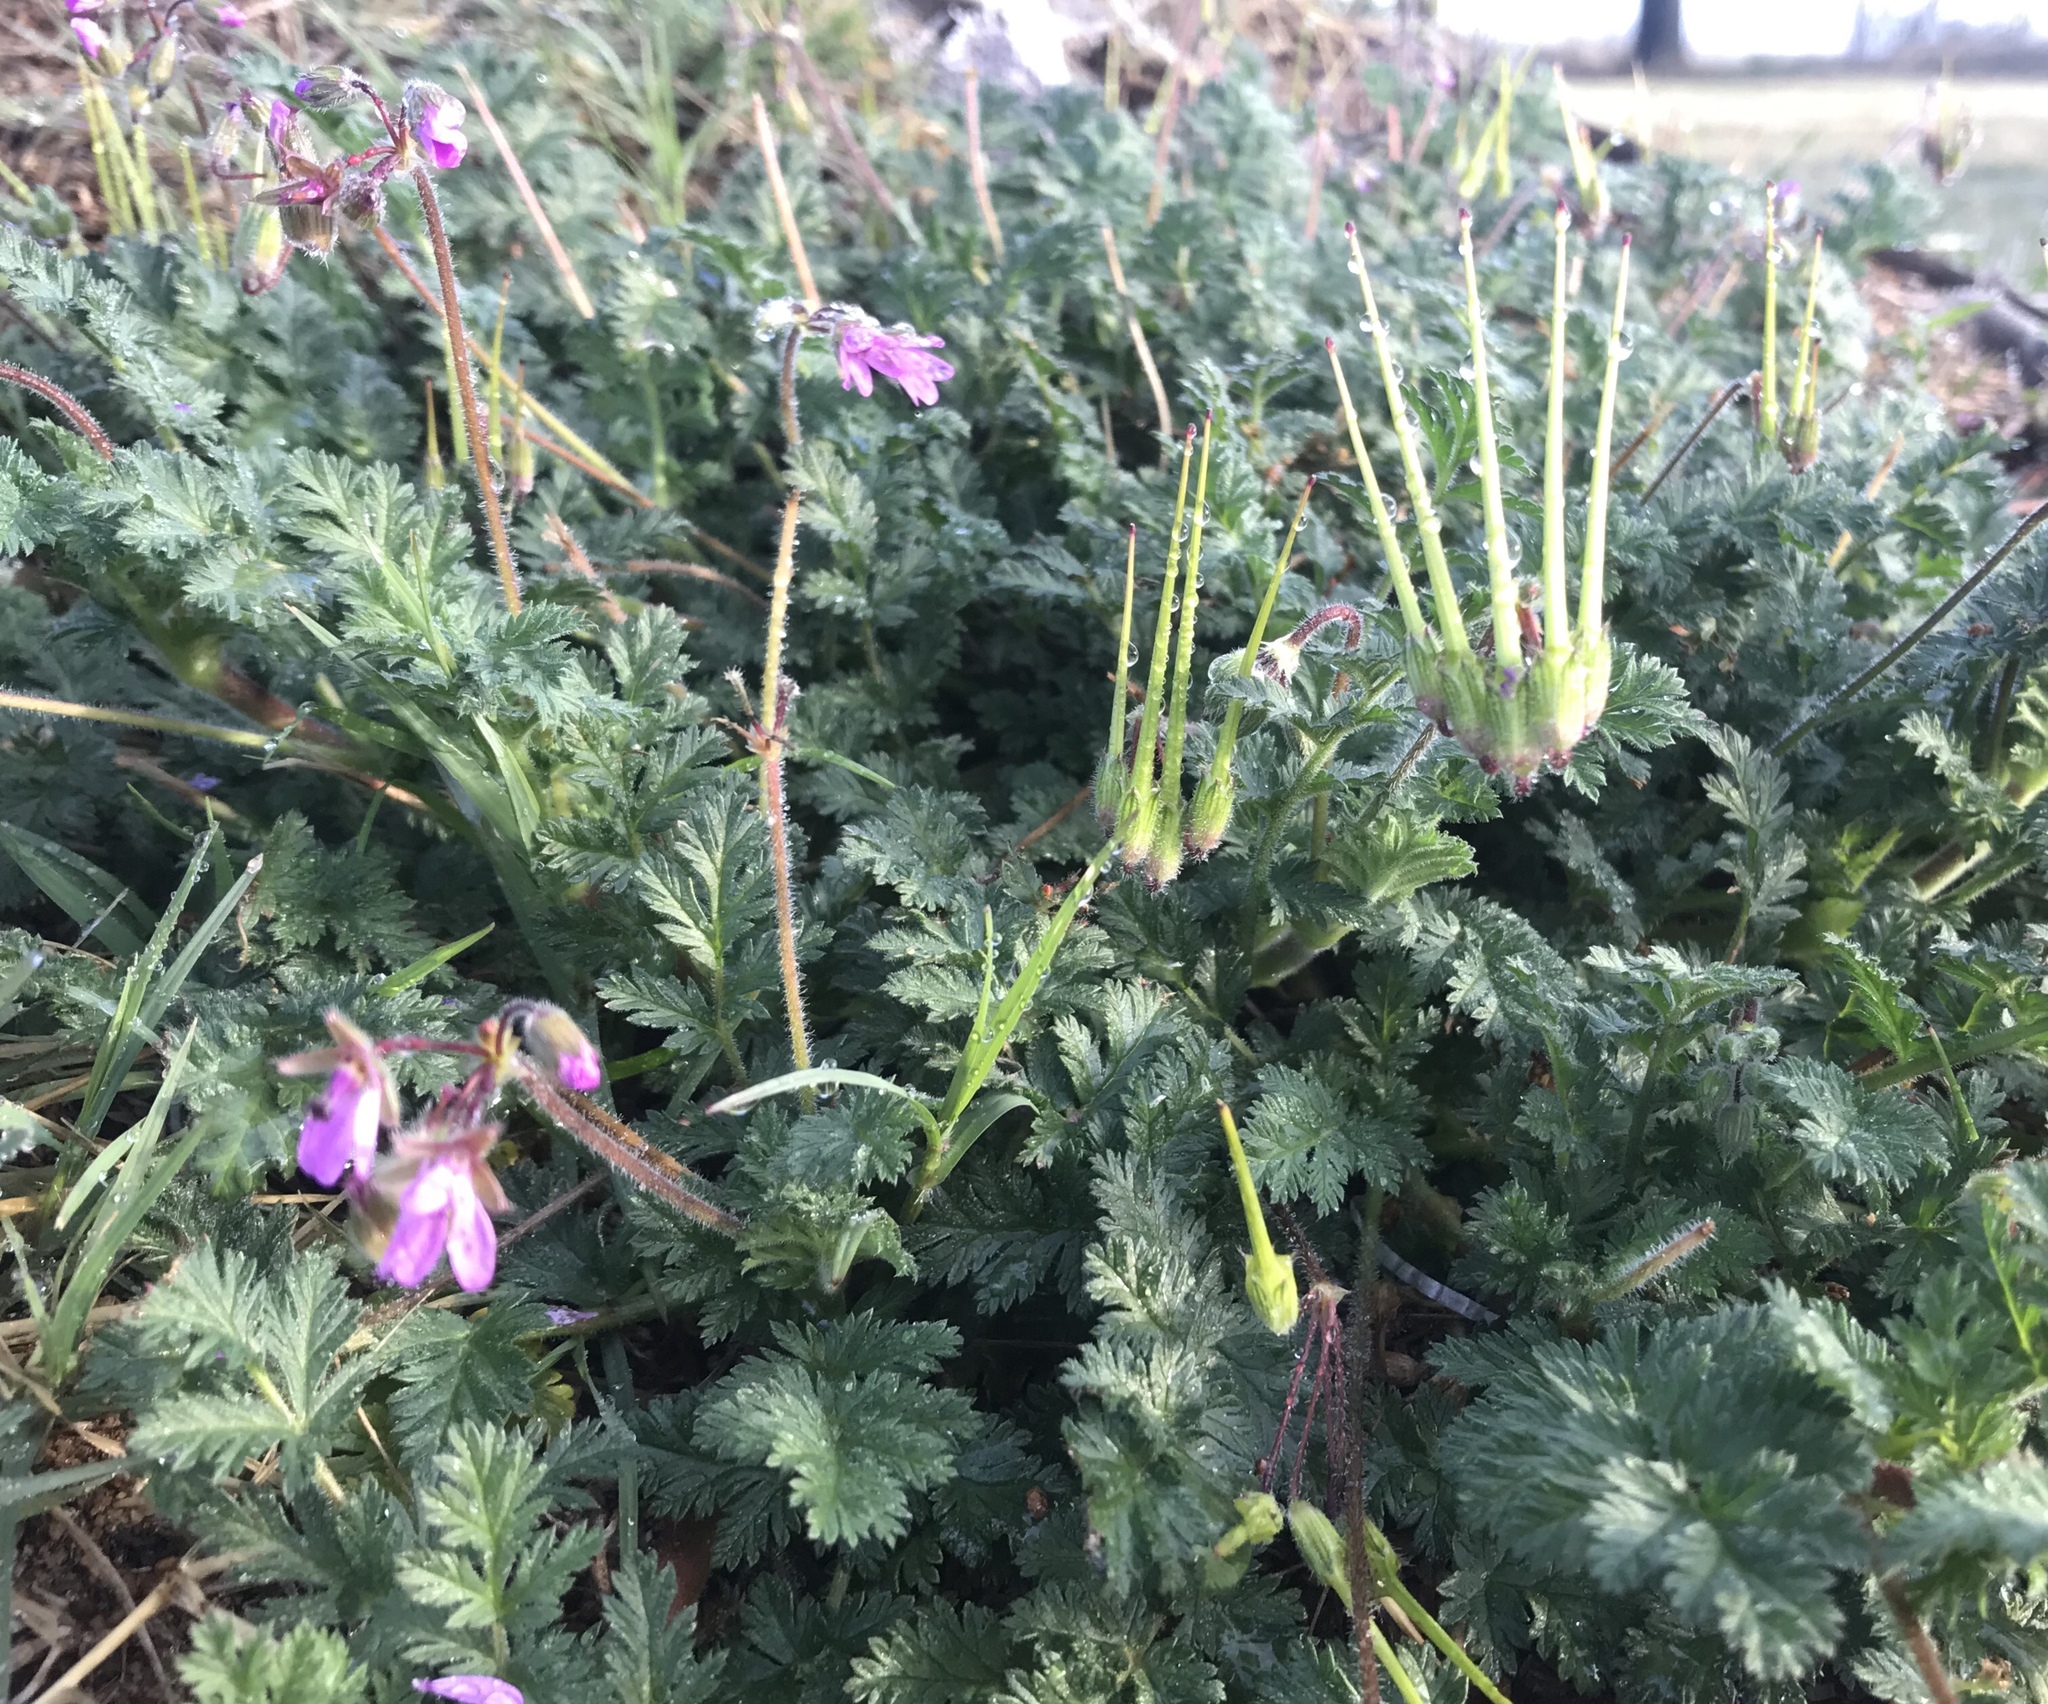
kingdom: Plantae
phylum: Tracheophyta
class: Magnoliopsida
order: Geraniales
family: Geraniaceae
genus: Erodium
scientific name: Erodium cicutarium
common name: Common stork's-bill
